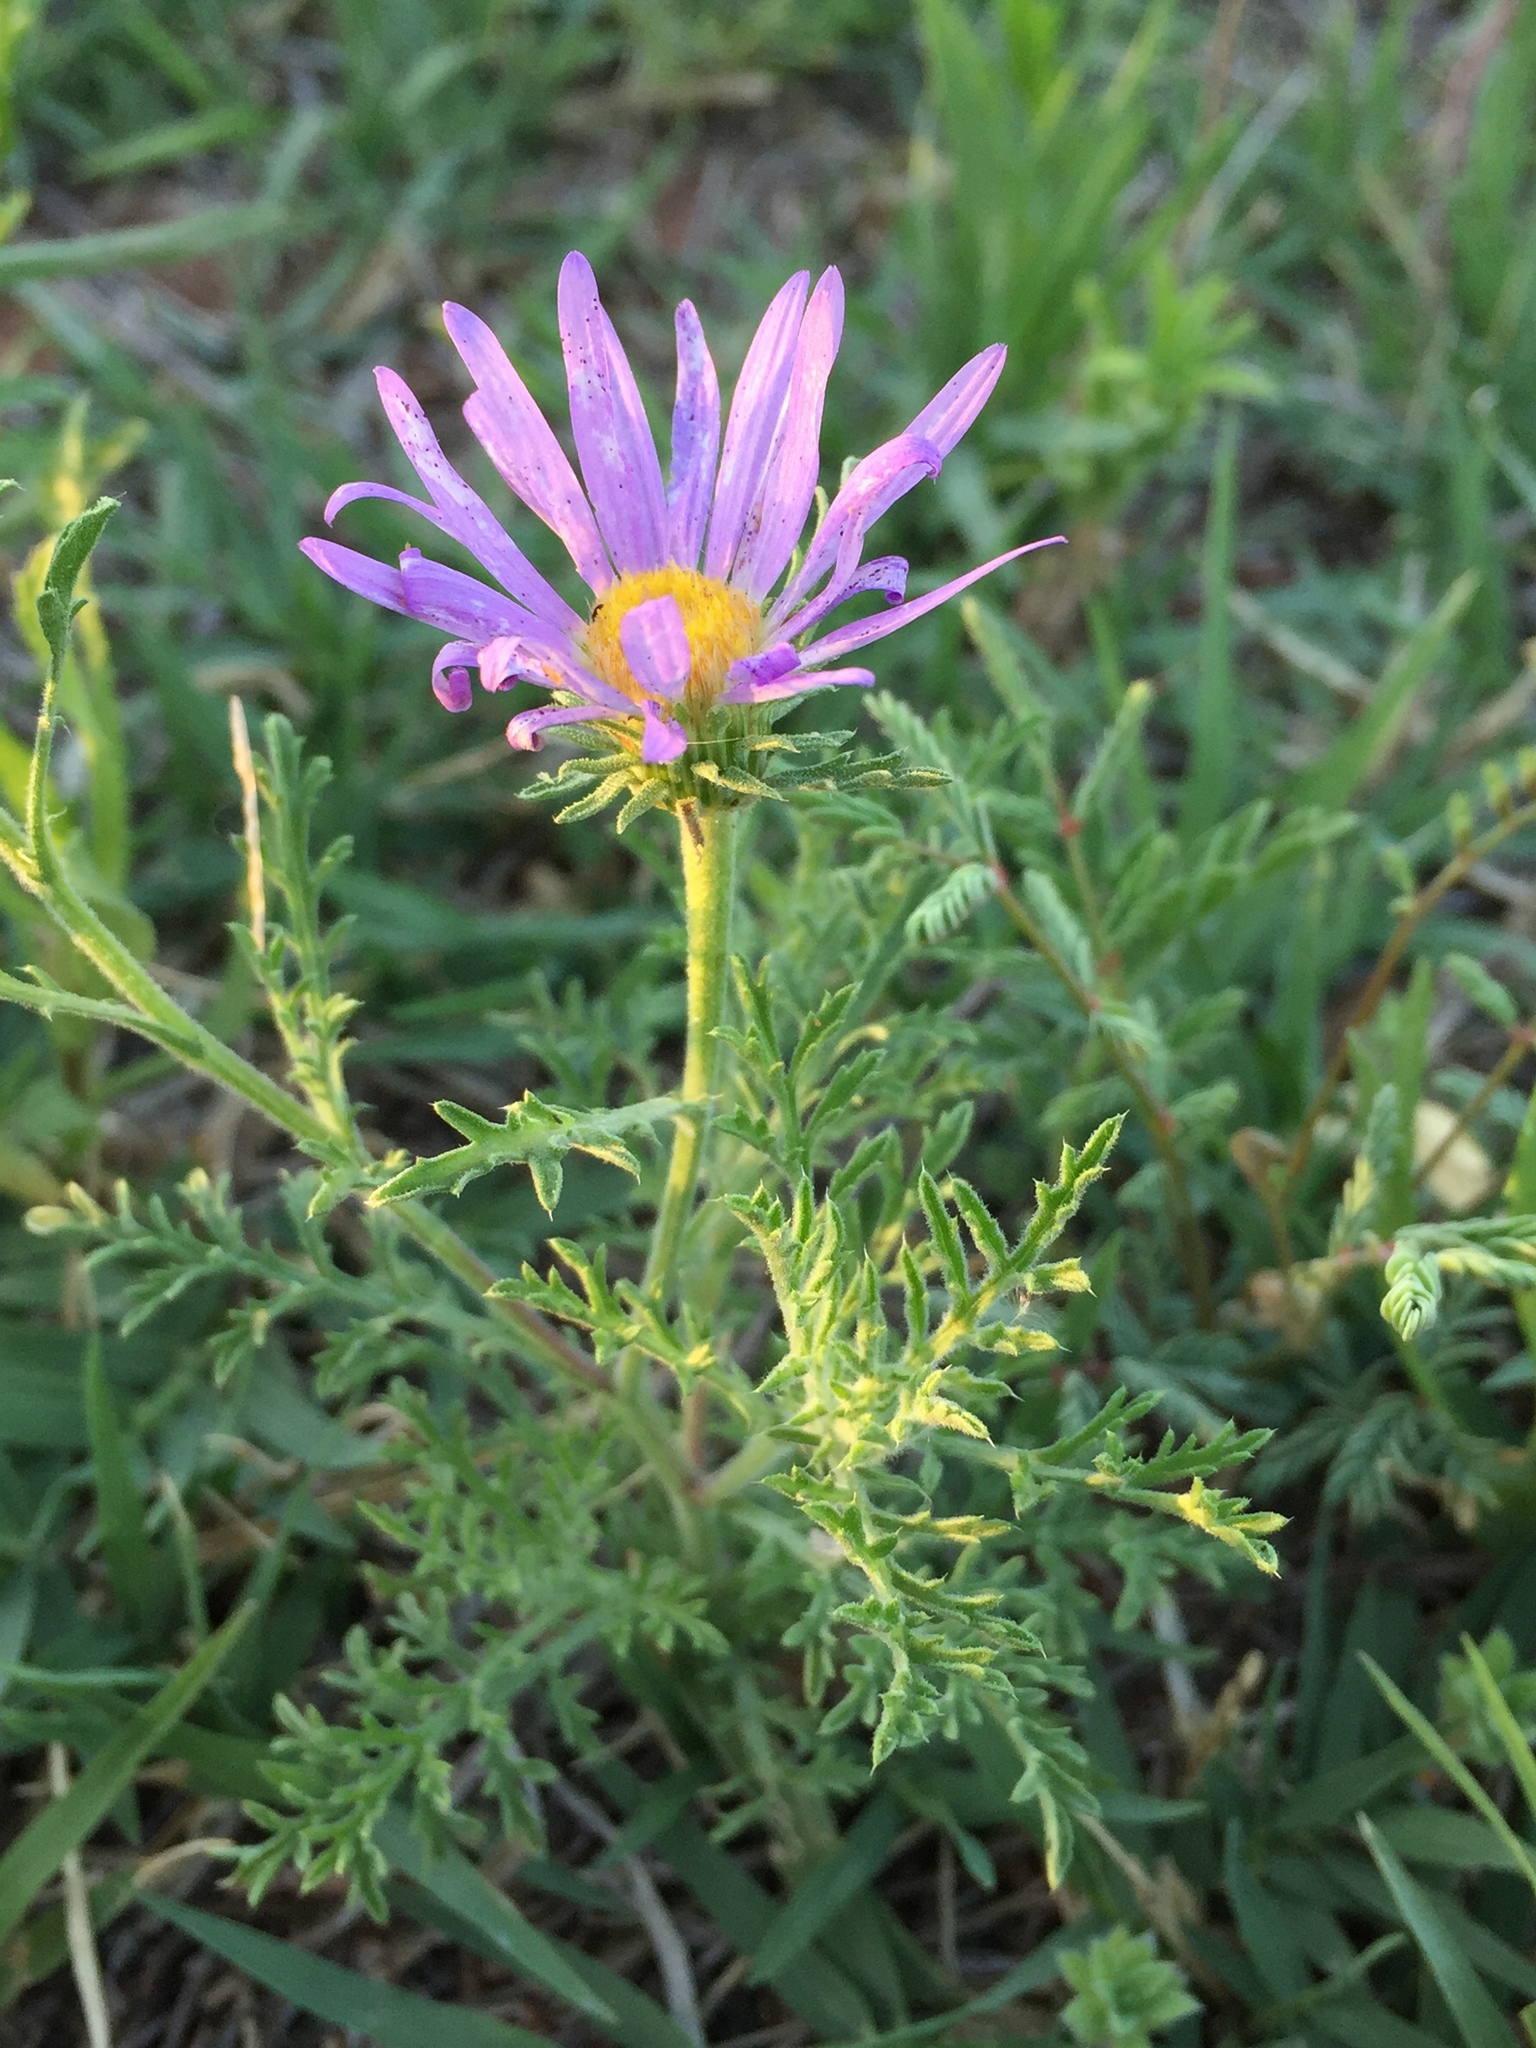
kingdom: Plantae
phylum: Tracheophyta
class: Magnoliopsida
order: Asterales
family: Asteraceae
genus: Machaeranthera
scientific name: Machaeranthera tanacetifolia
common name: Tansy-aster
